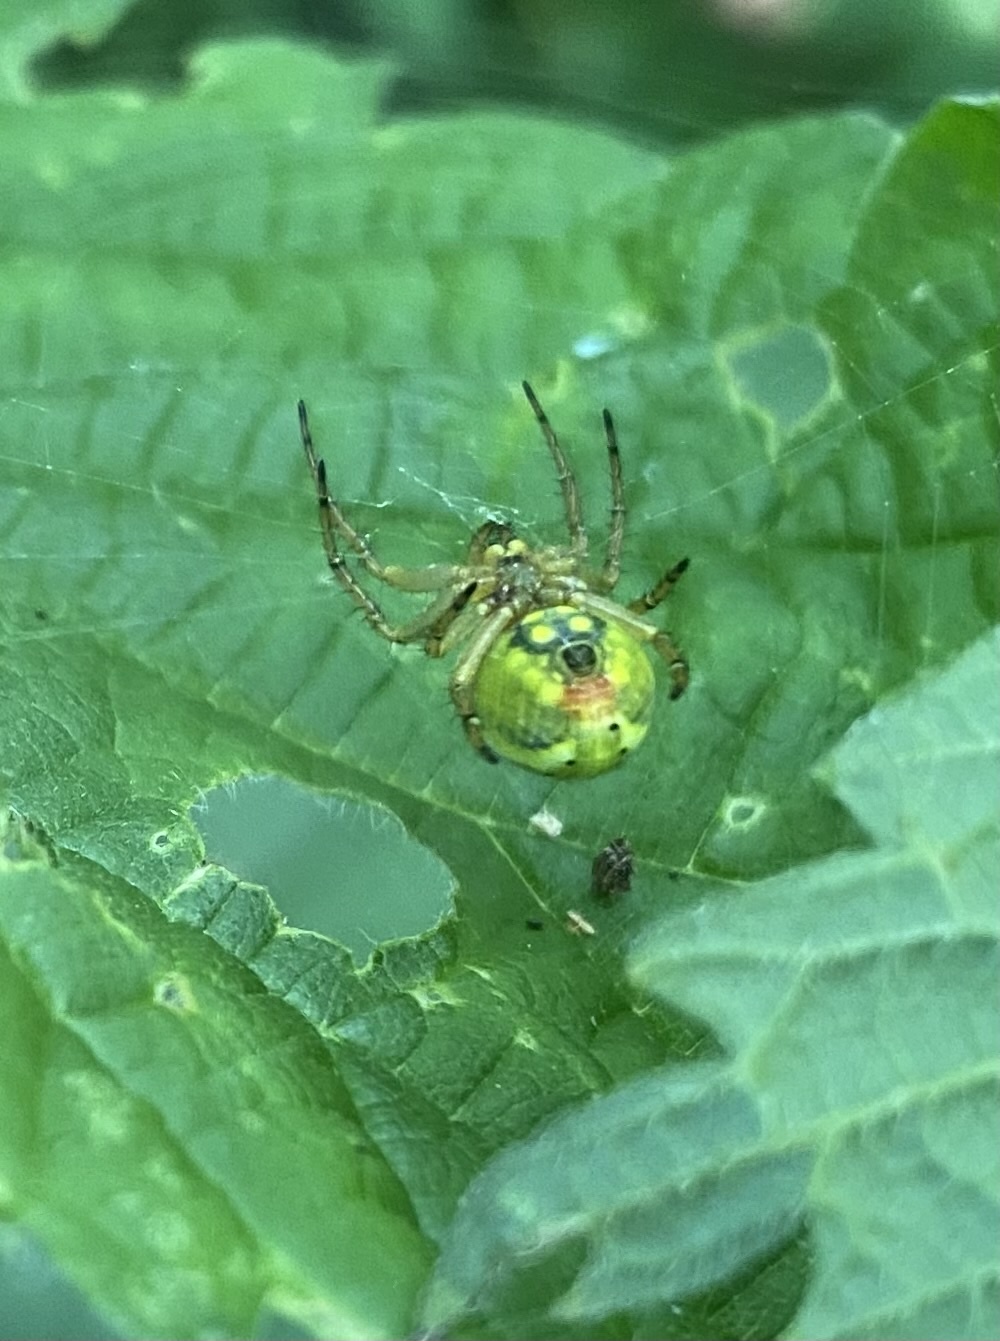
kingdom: Animalia
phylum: Arthropoda
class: Arachnida
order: Araneae
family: Araneidae
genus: Araniella
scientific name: Araniella alpica
